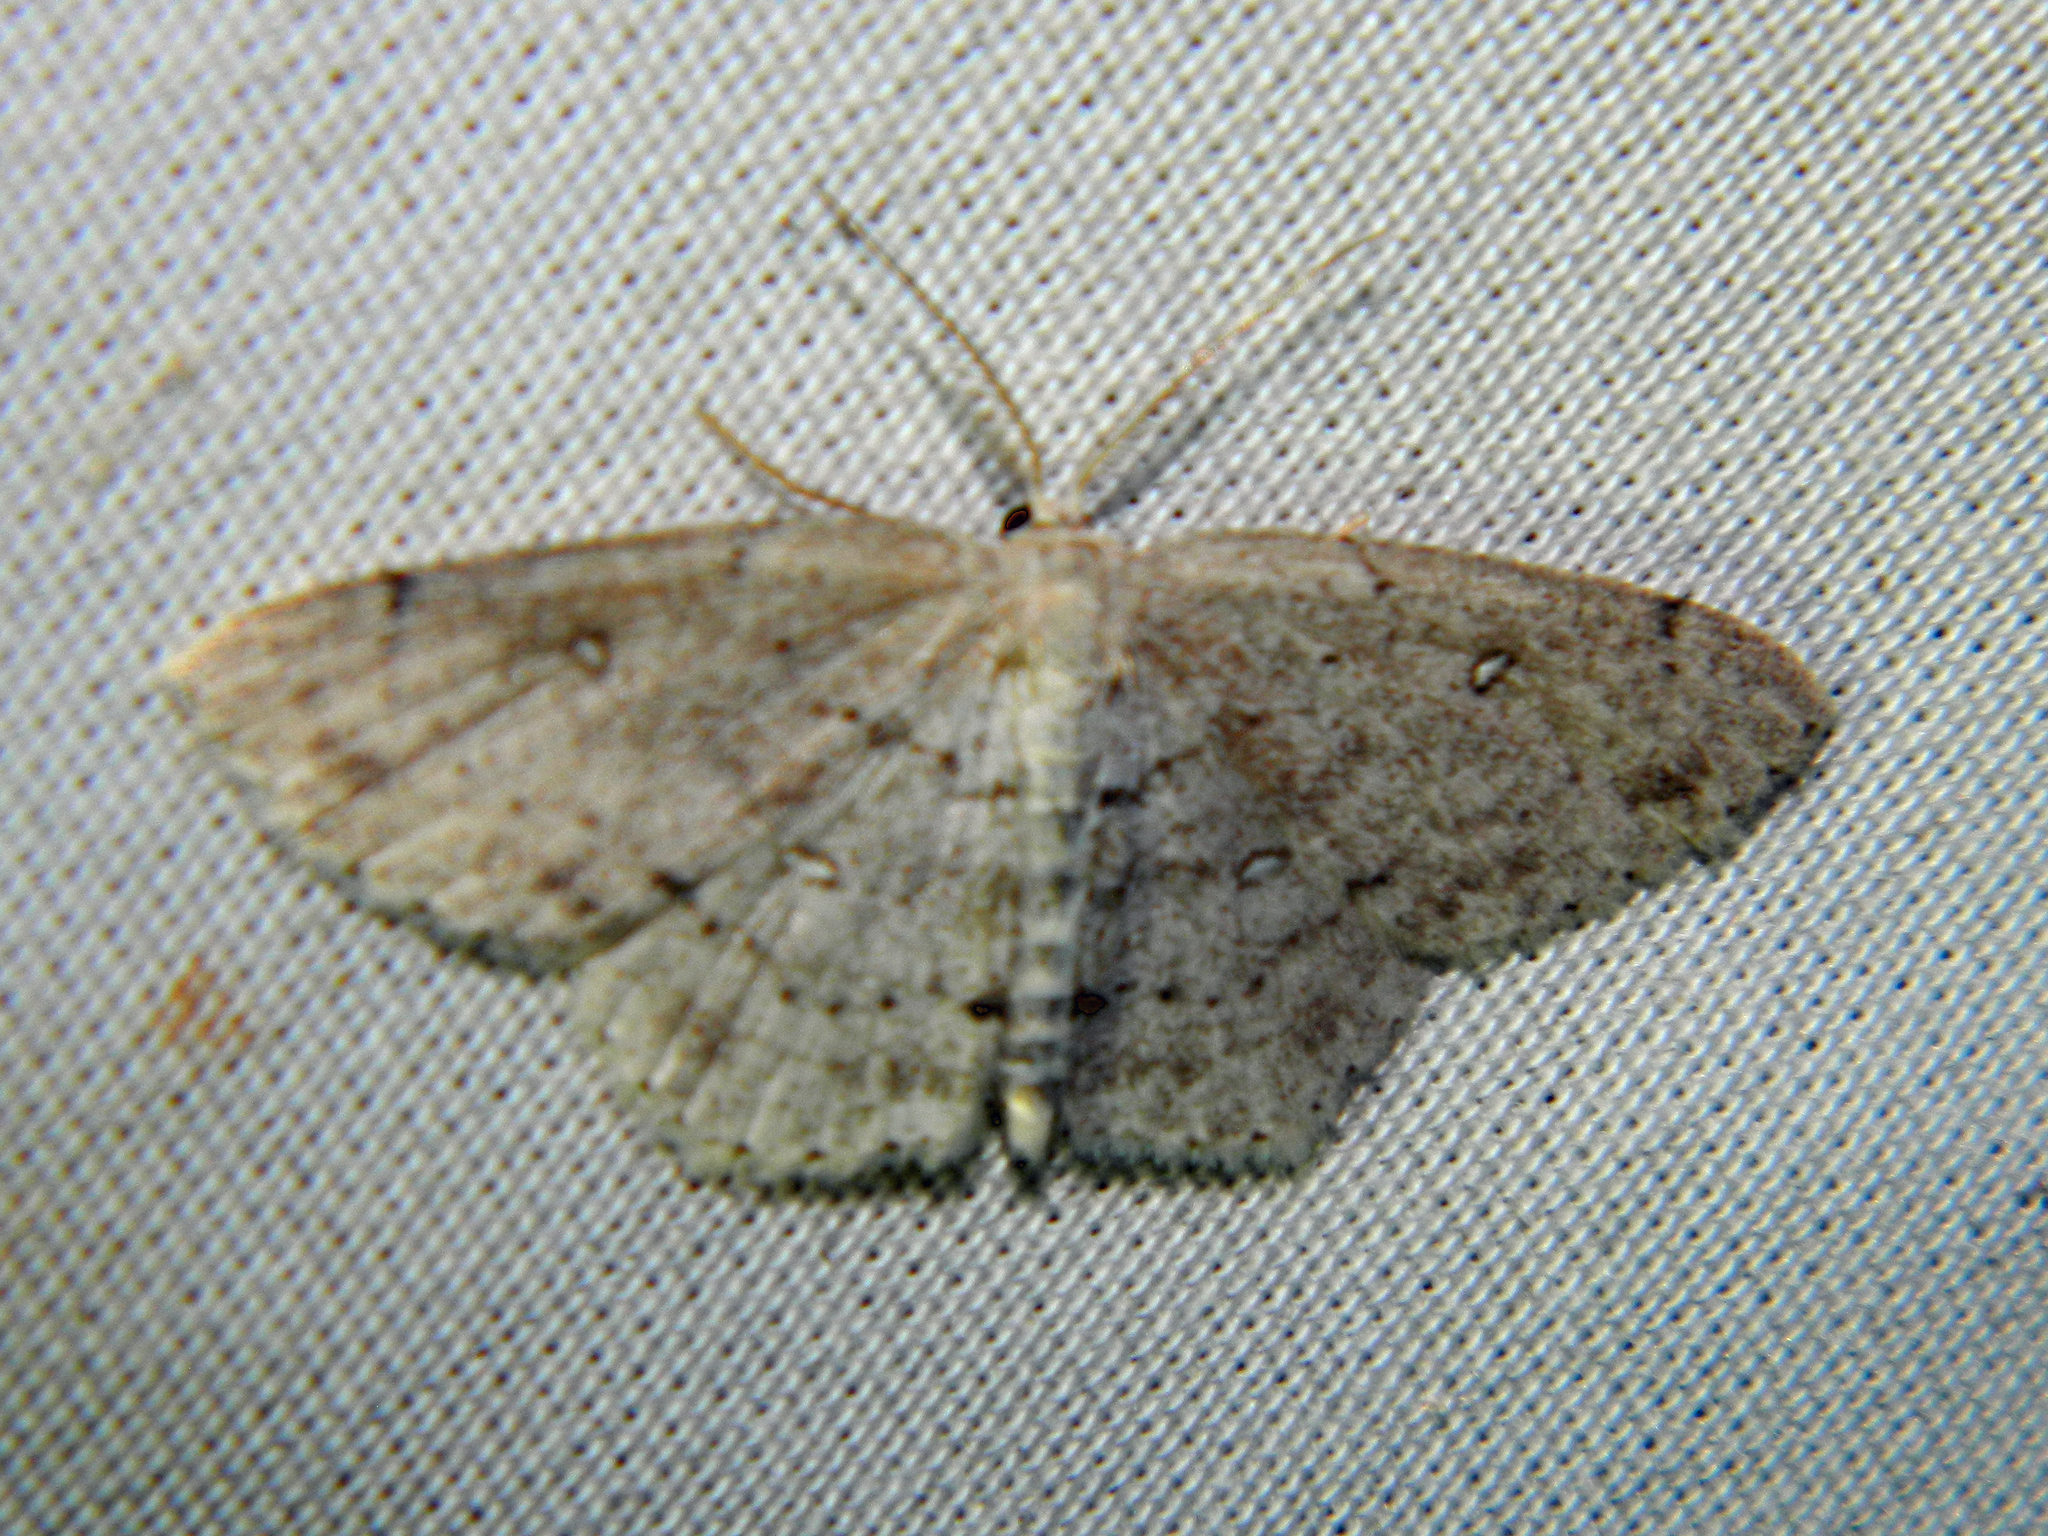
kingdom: Animalia
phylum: Arthropoda
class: Insecta
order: Lepidoptera
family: Geometridae
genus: Cyclophora
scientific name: Cyclophora pendulinaria
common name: Sweet fern geometer
